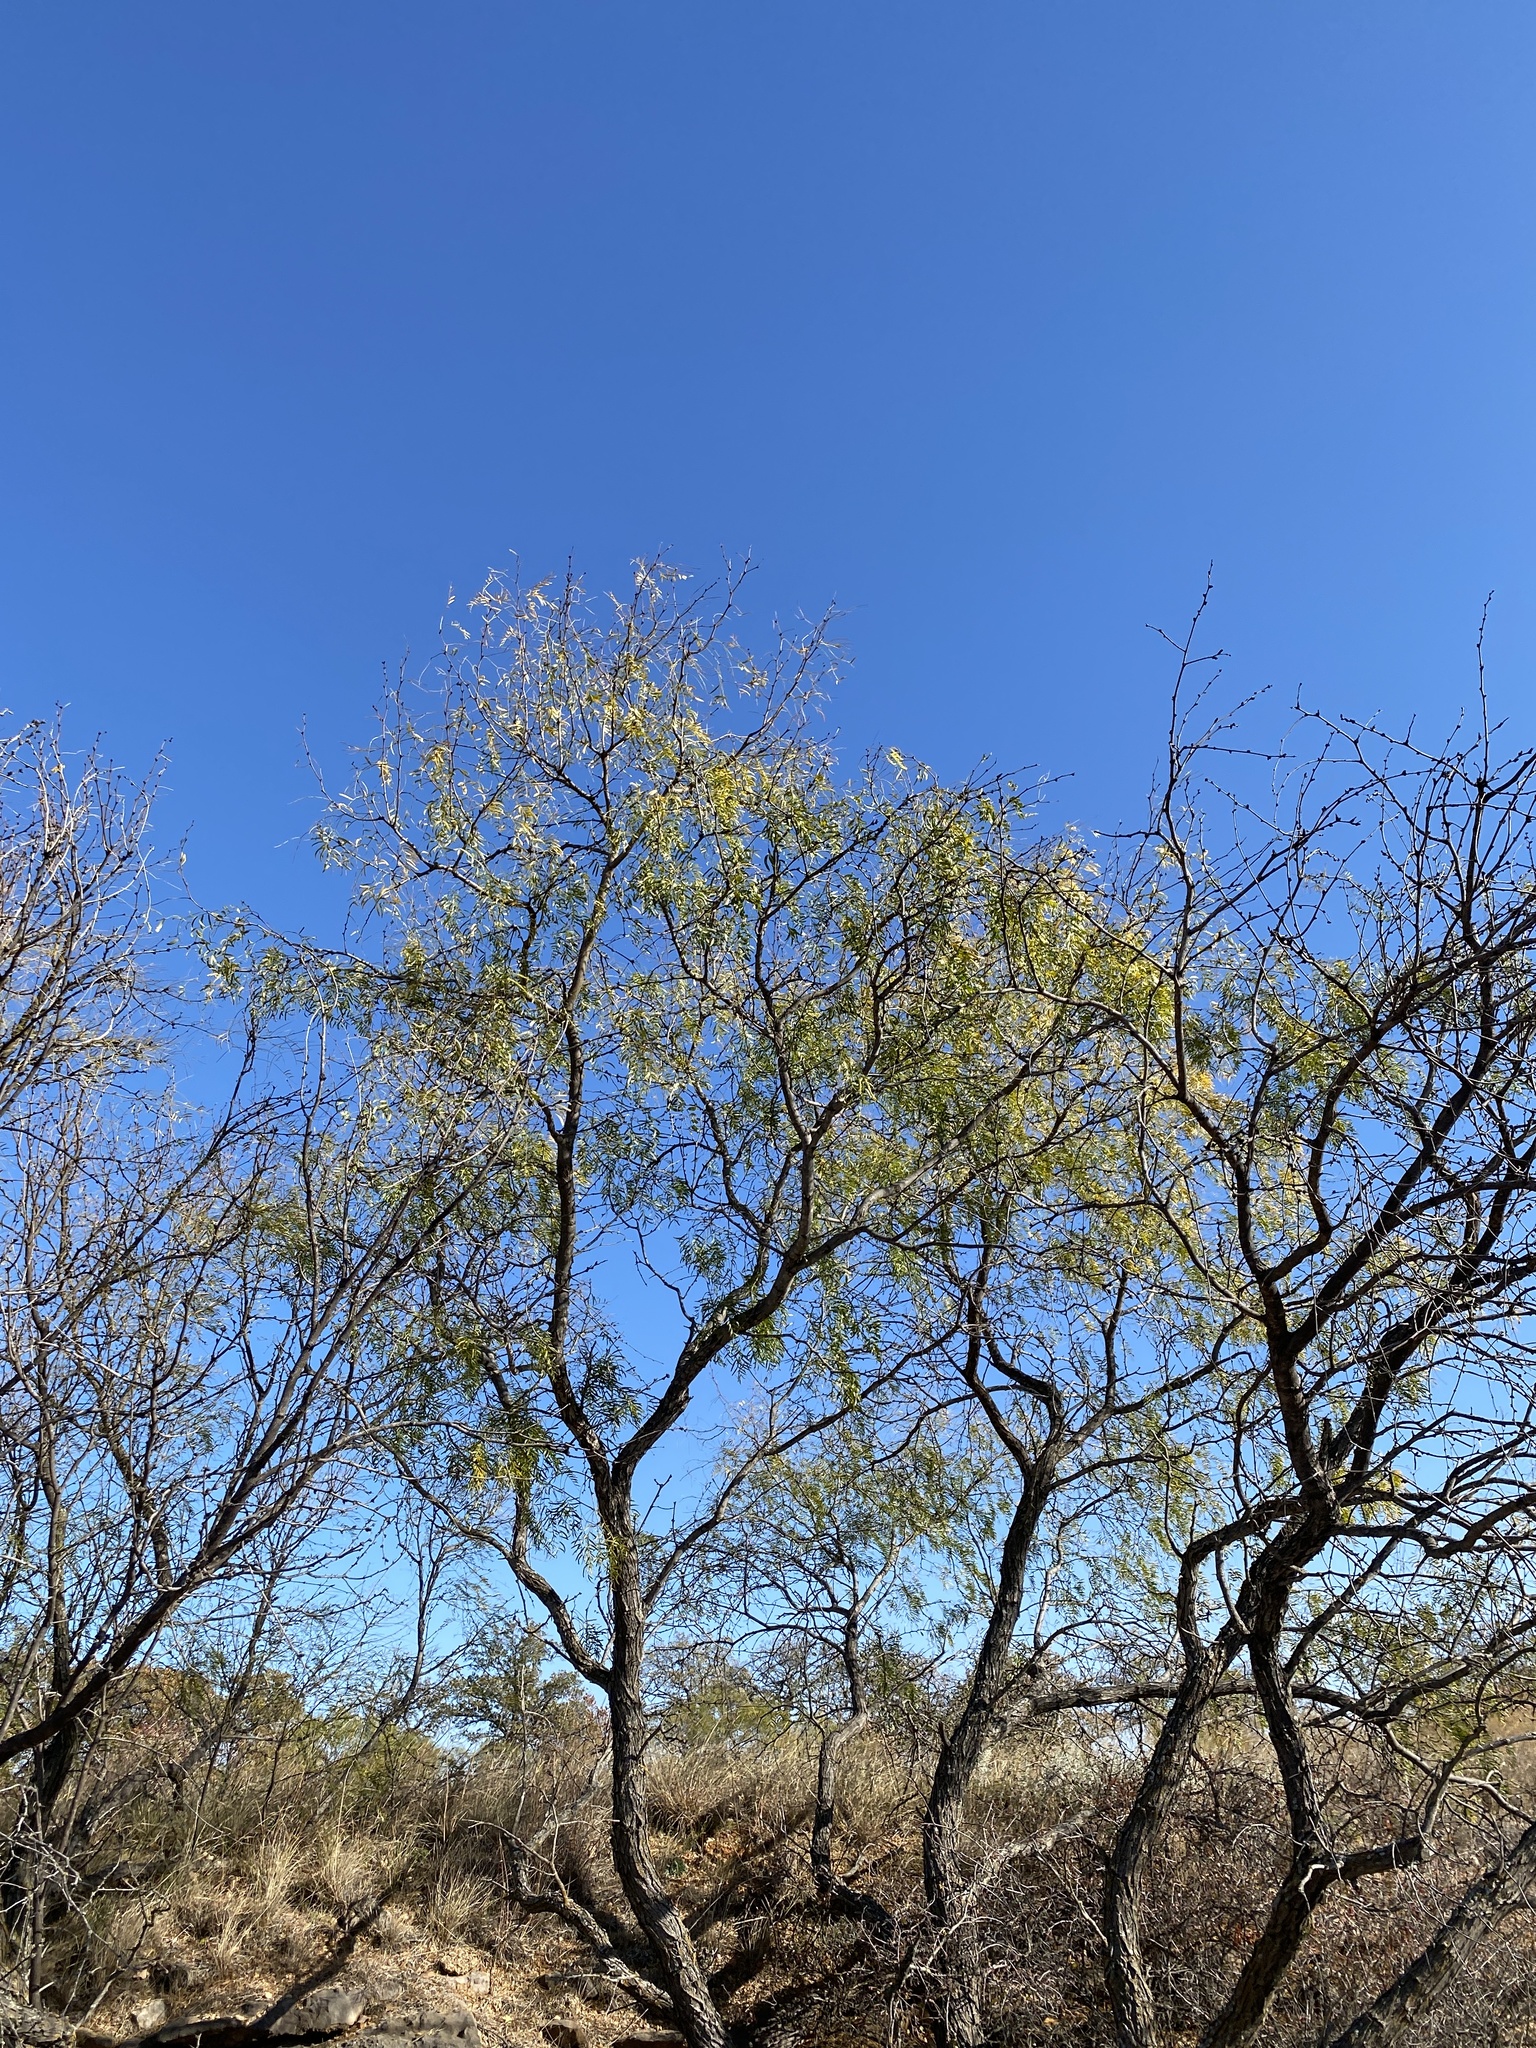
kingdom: Plantae
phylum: Tracheophyta
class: Magnoliopsida
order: Fabales
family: Fabaceae
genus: Prosopis
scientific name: Prosopis glandulosa
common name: Honey mesquite
